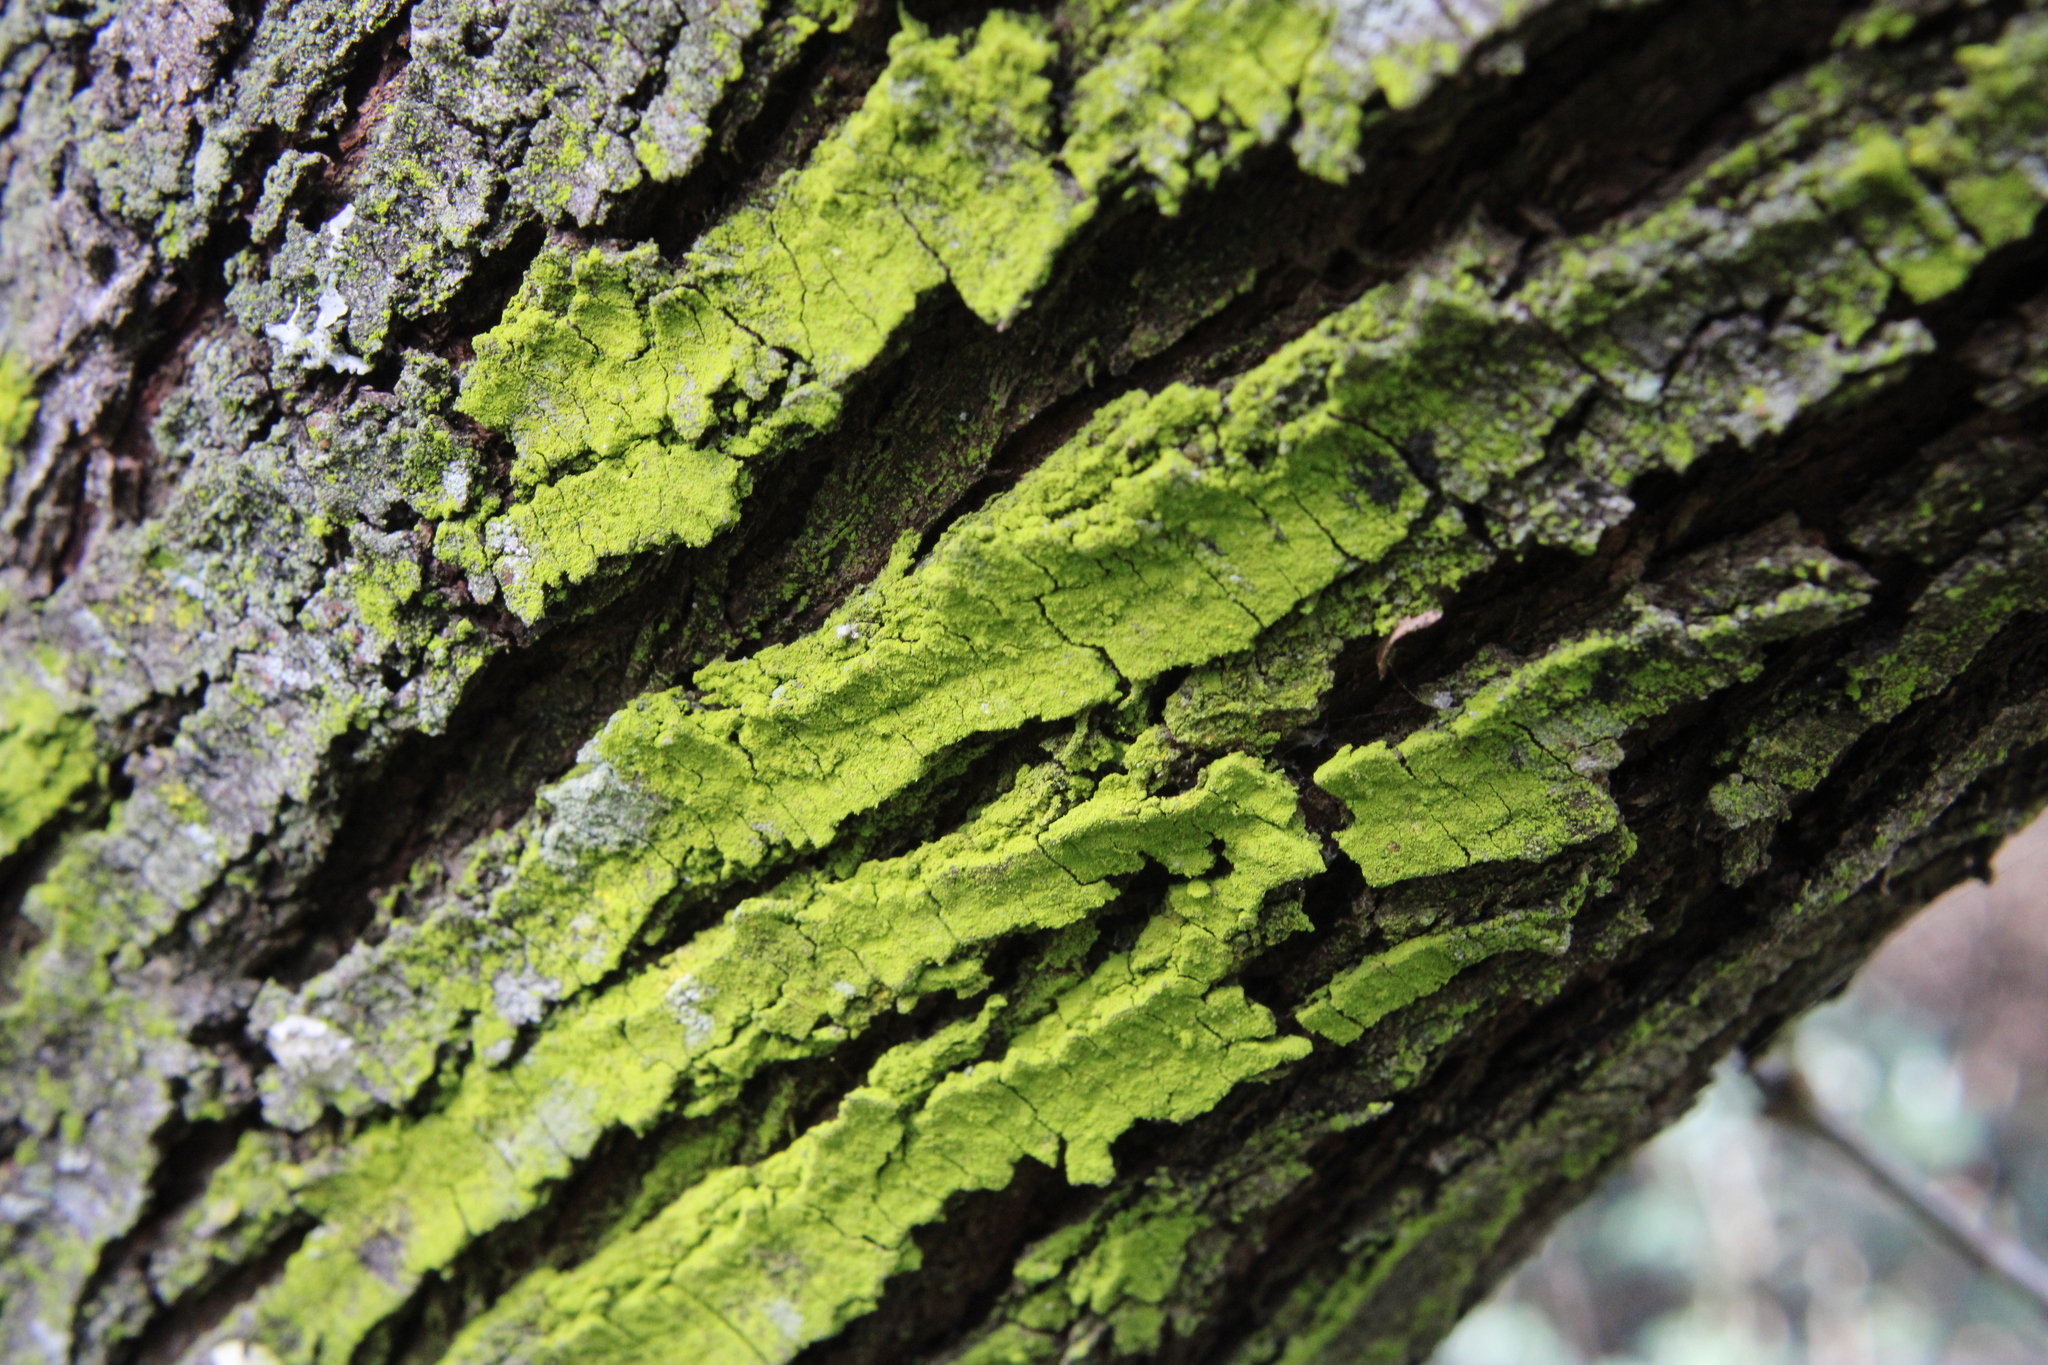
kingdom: Fungi
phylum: Ascomycota
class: Arthoniomycetes
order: Arthoniales
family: Chrysotrichaceae
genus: Chrysothrix
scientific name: Chrysothrix candelaris
